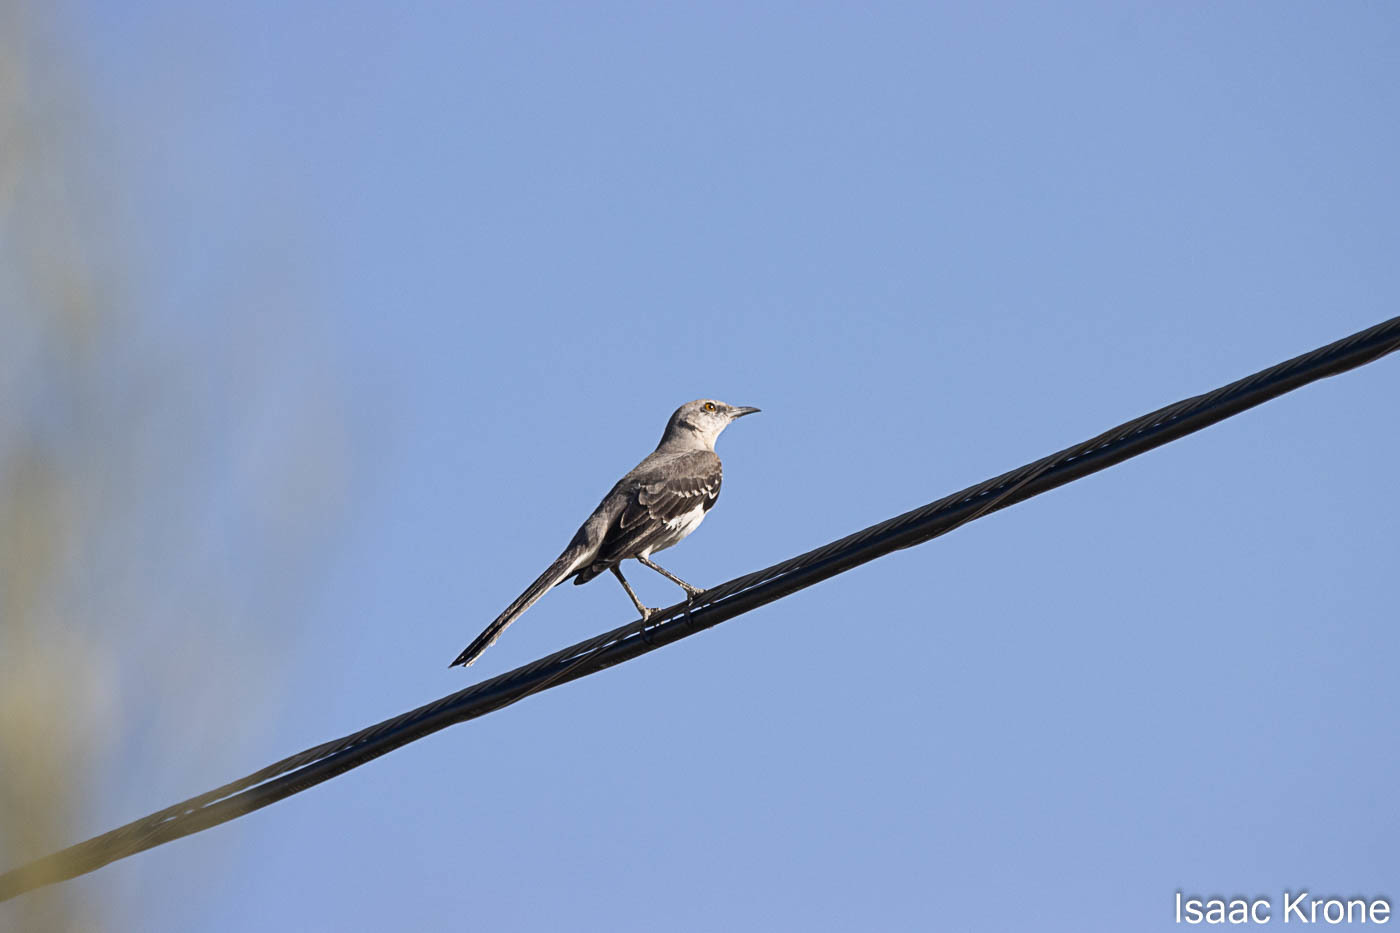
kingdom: Animalia
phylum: Chordata
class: Aves
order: Passeriformes
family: Mimidae
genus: Mimus
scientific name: Mimus polyglottos
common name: Northern mockingbird
